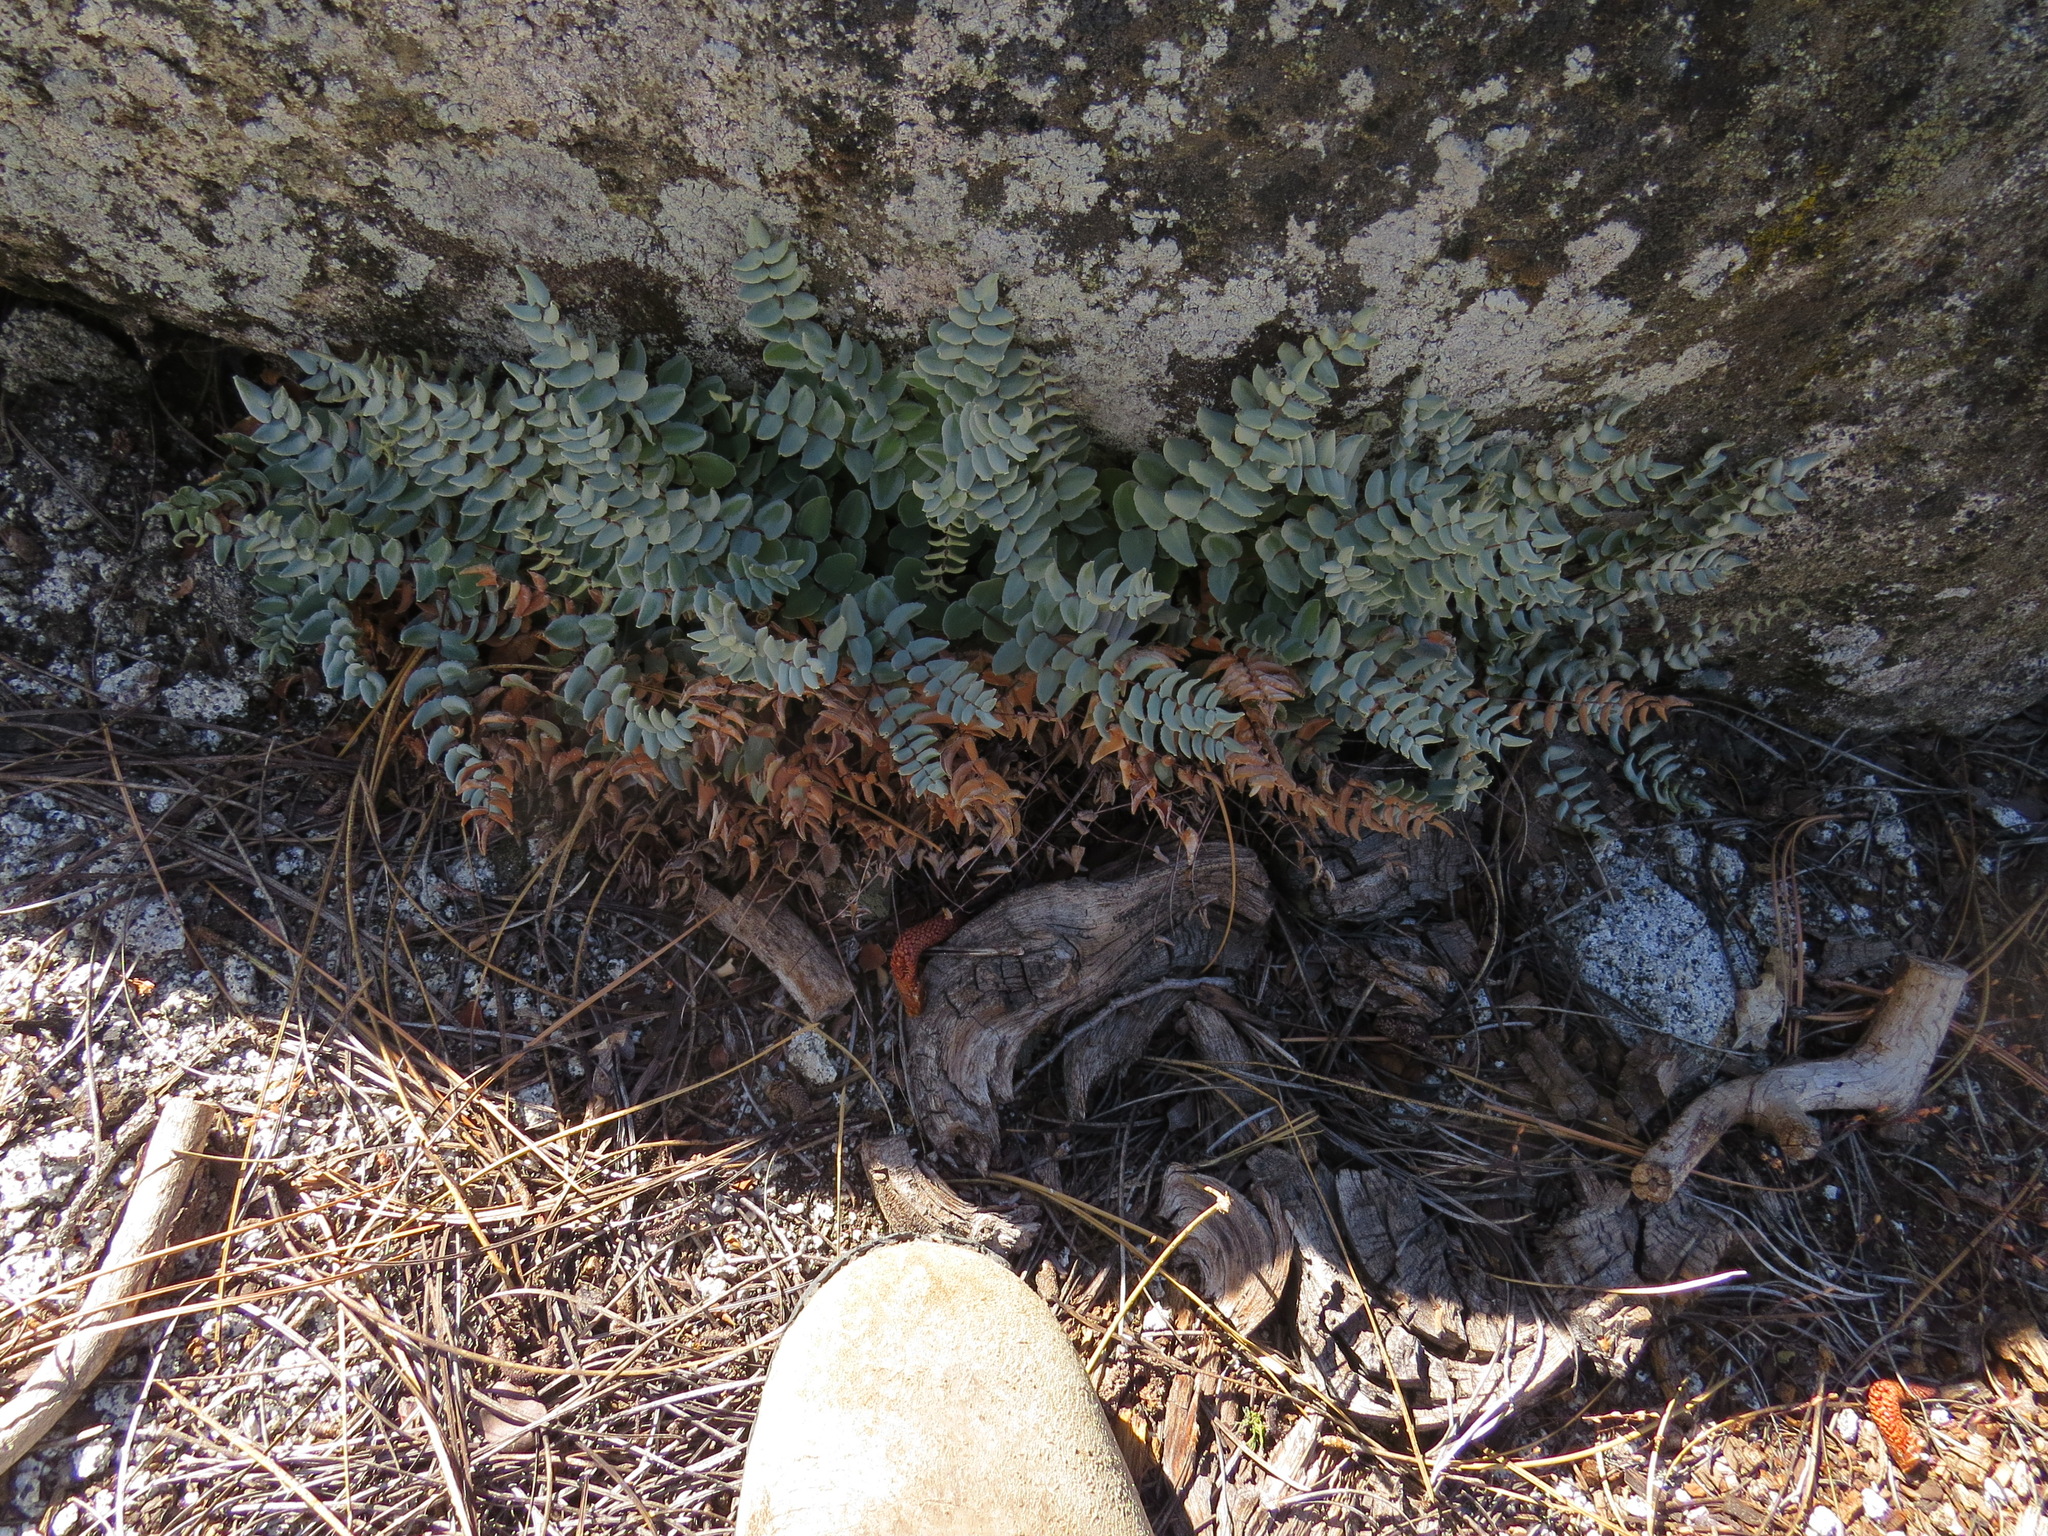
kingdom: Plantae
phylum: Tracheophyta
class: Polypodiopsida
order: Polypodiales
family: Pteridaceae
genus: Pellaea
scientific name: Pellaea bridgesii
